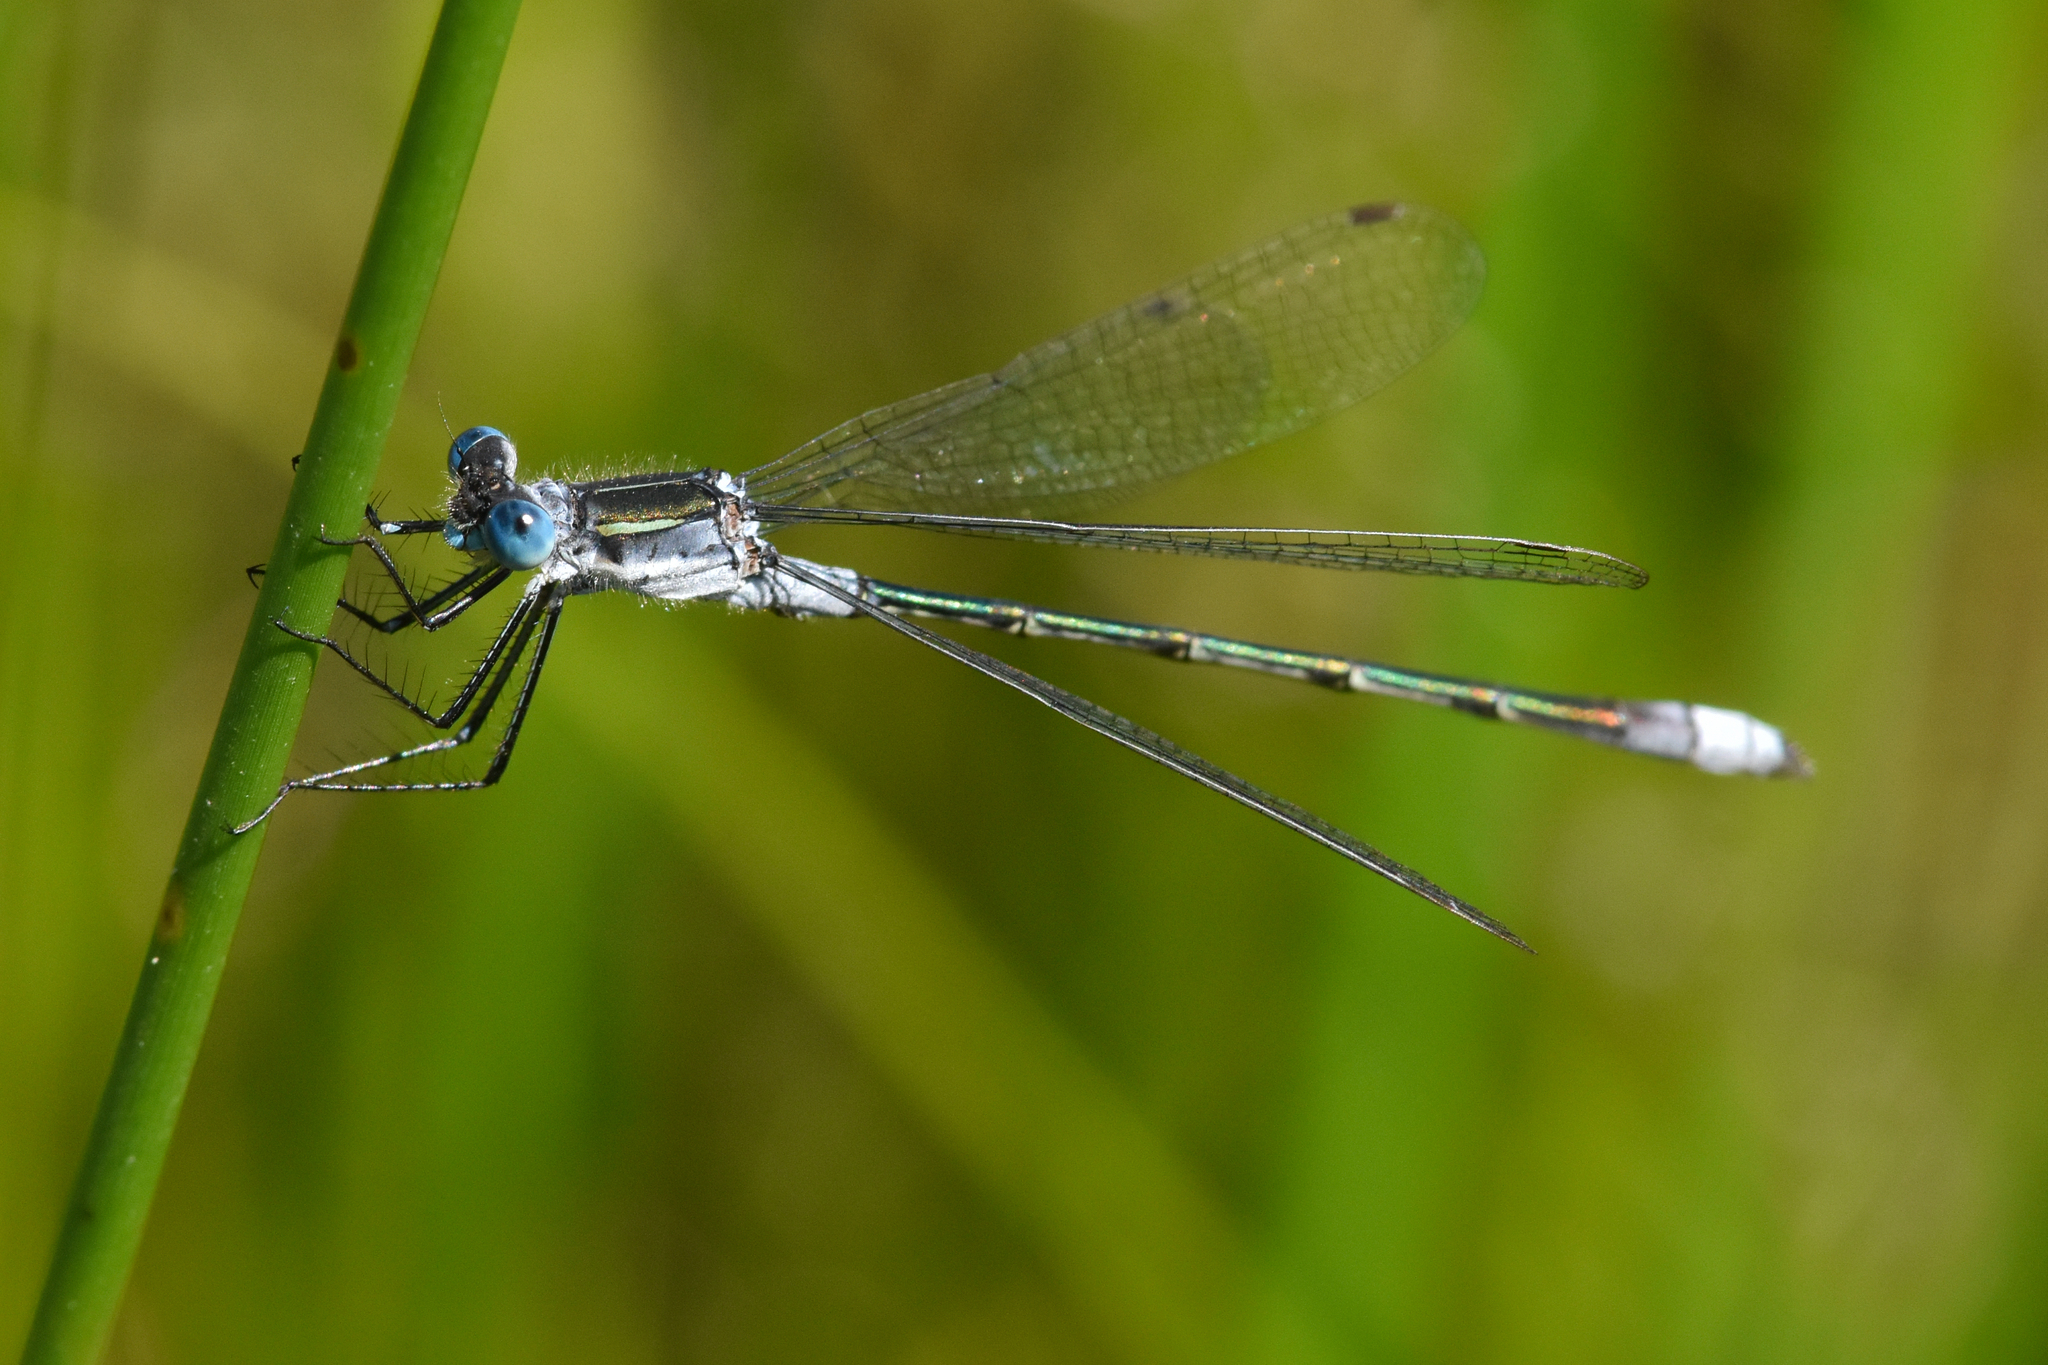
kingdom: Animalia
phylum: Arthropoda
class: Insecta
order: Odonata
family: Lestidae
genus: Lestes
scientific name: Lestes disjunctus
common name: Northern spreadwing
